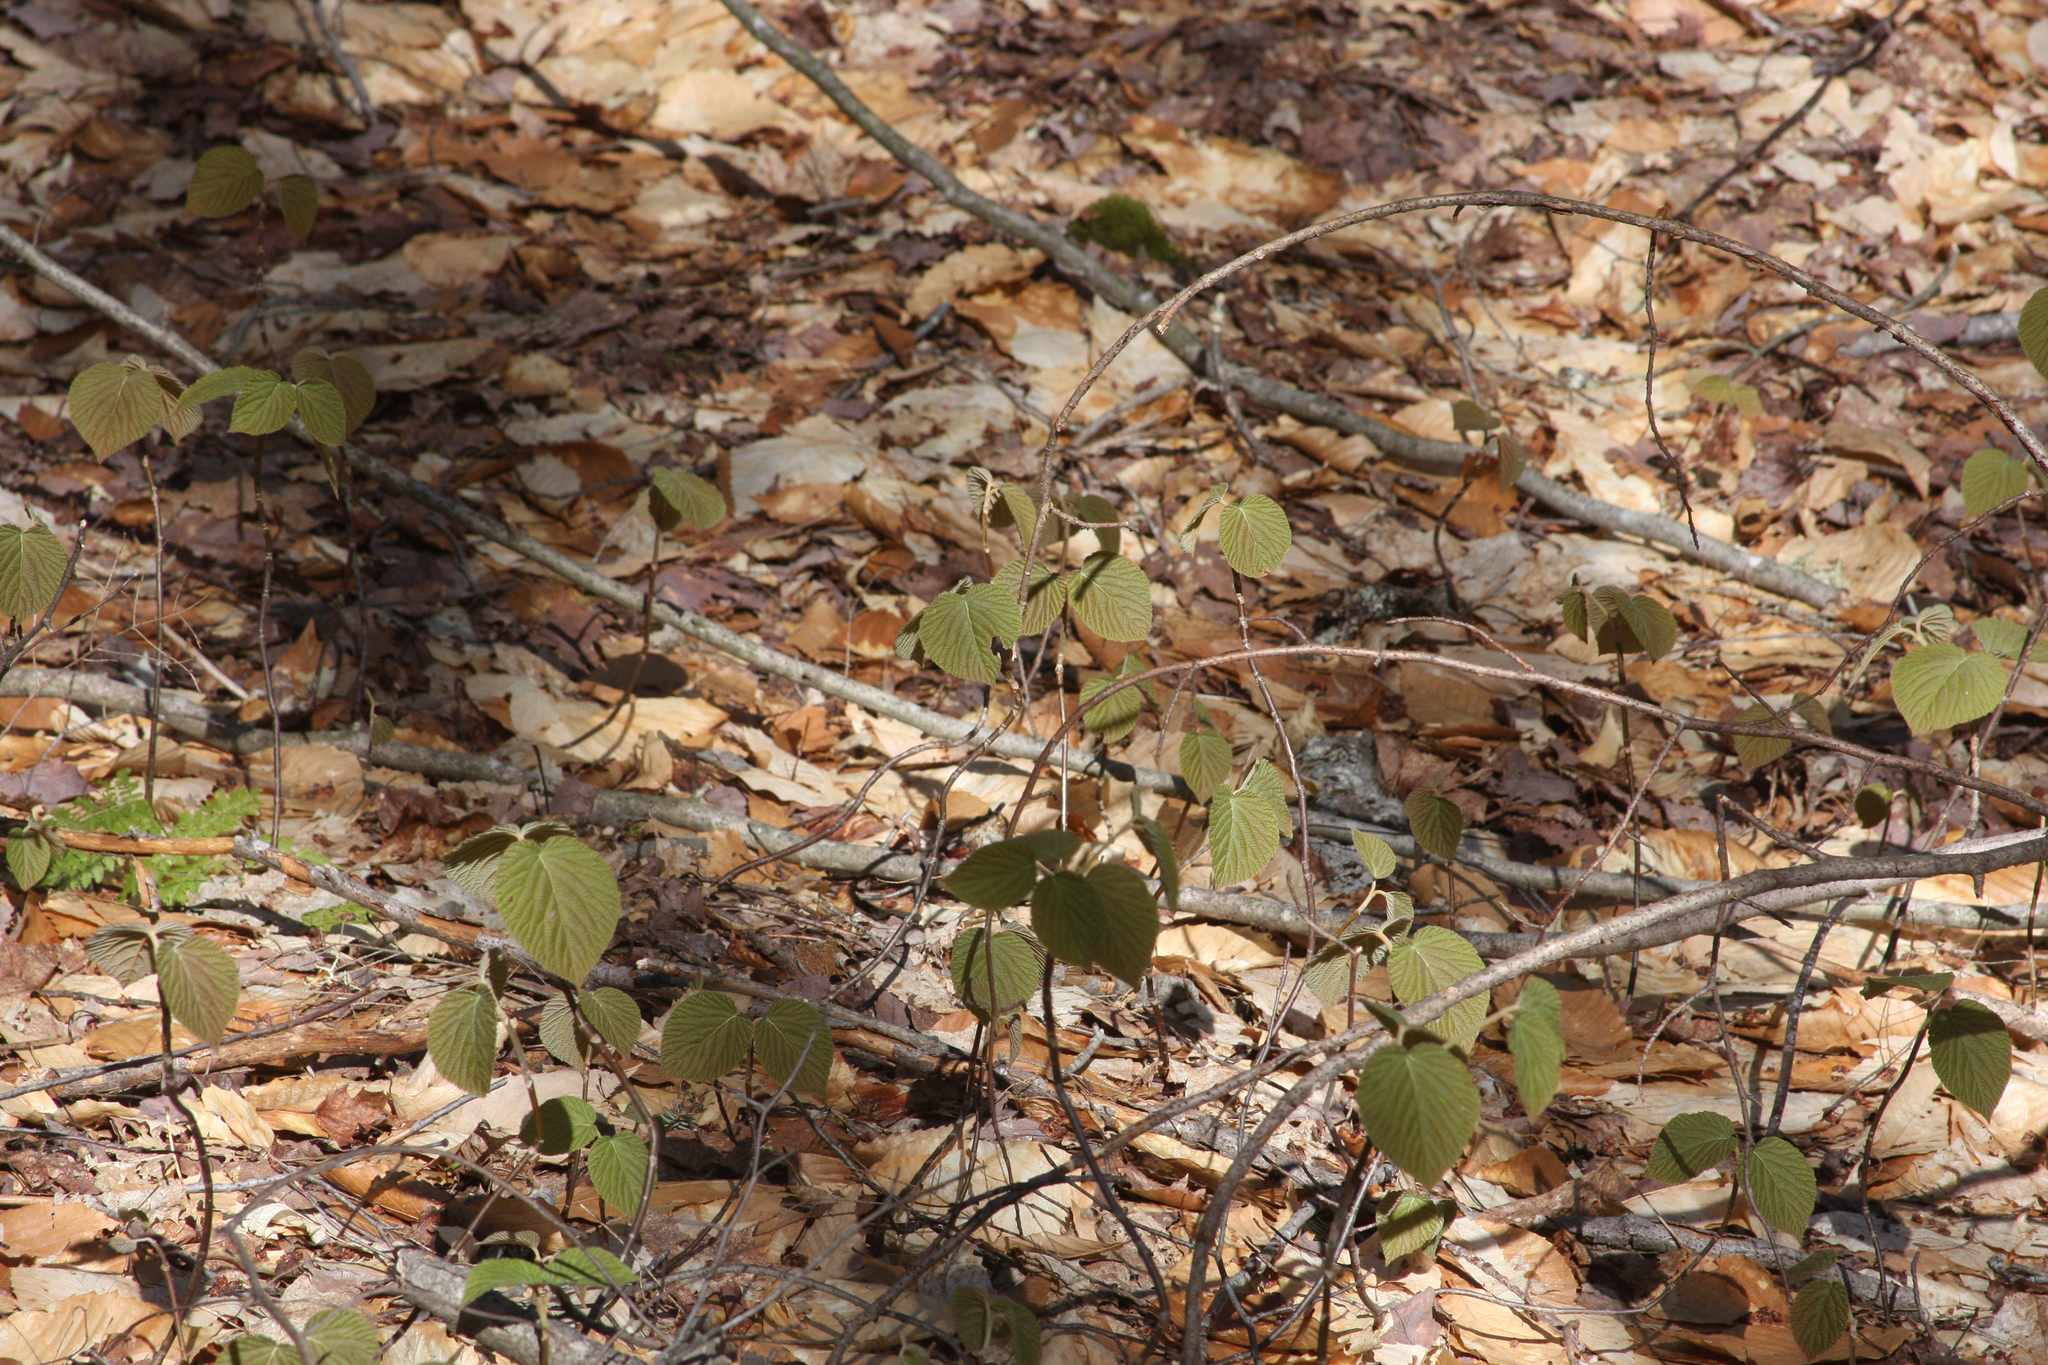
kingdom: Plantae
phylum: Tracheophyta
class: Magnoliopsida
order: Dipsacales
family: Viburnaceae
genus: Viburnum
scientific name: Viburnum lantanoides
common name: Hobblebush
